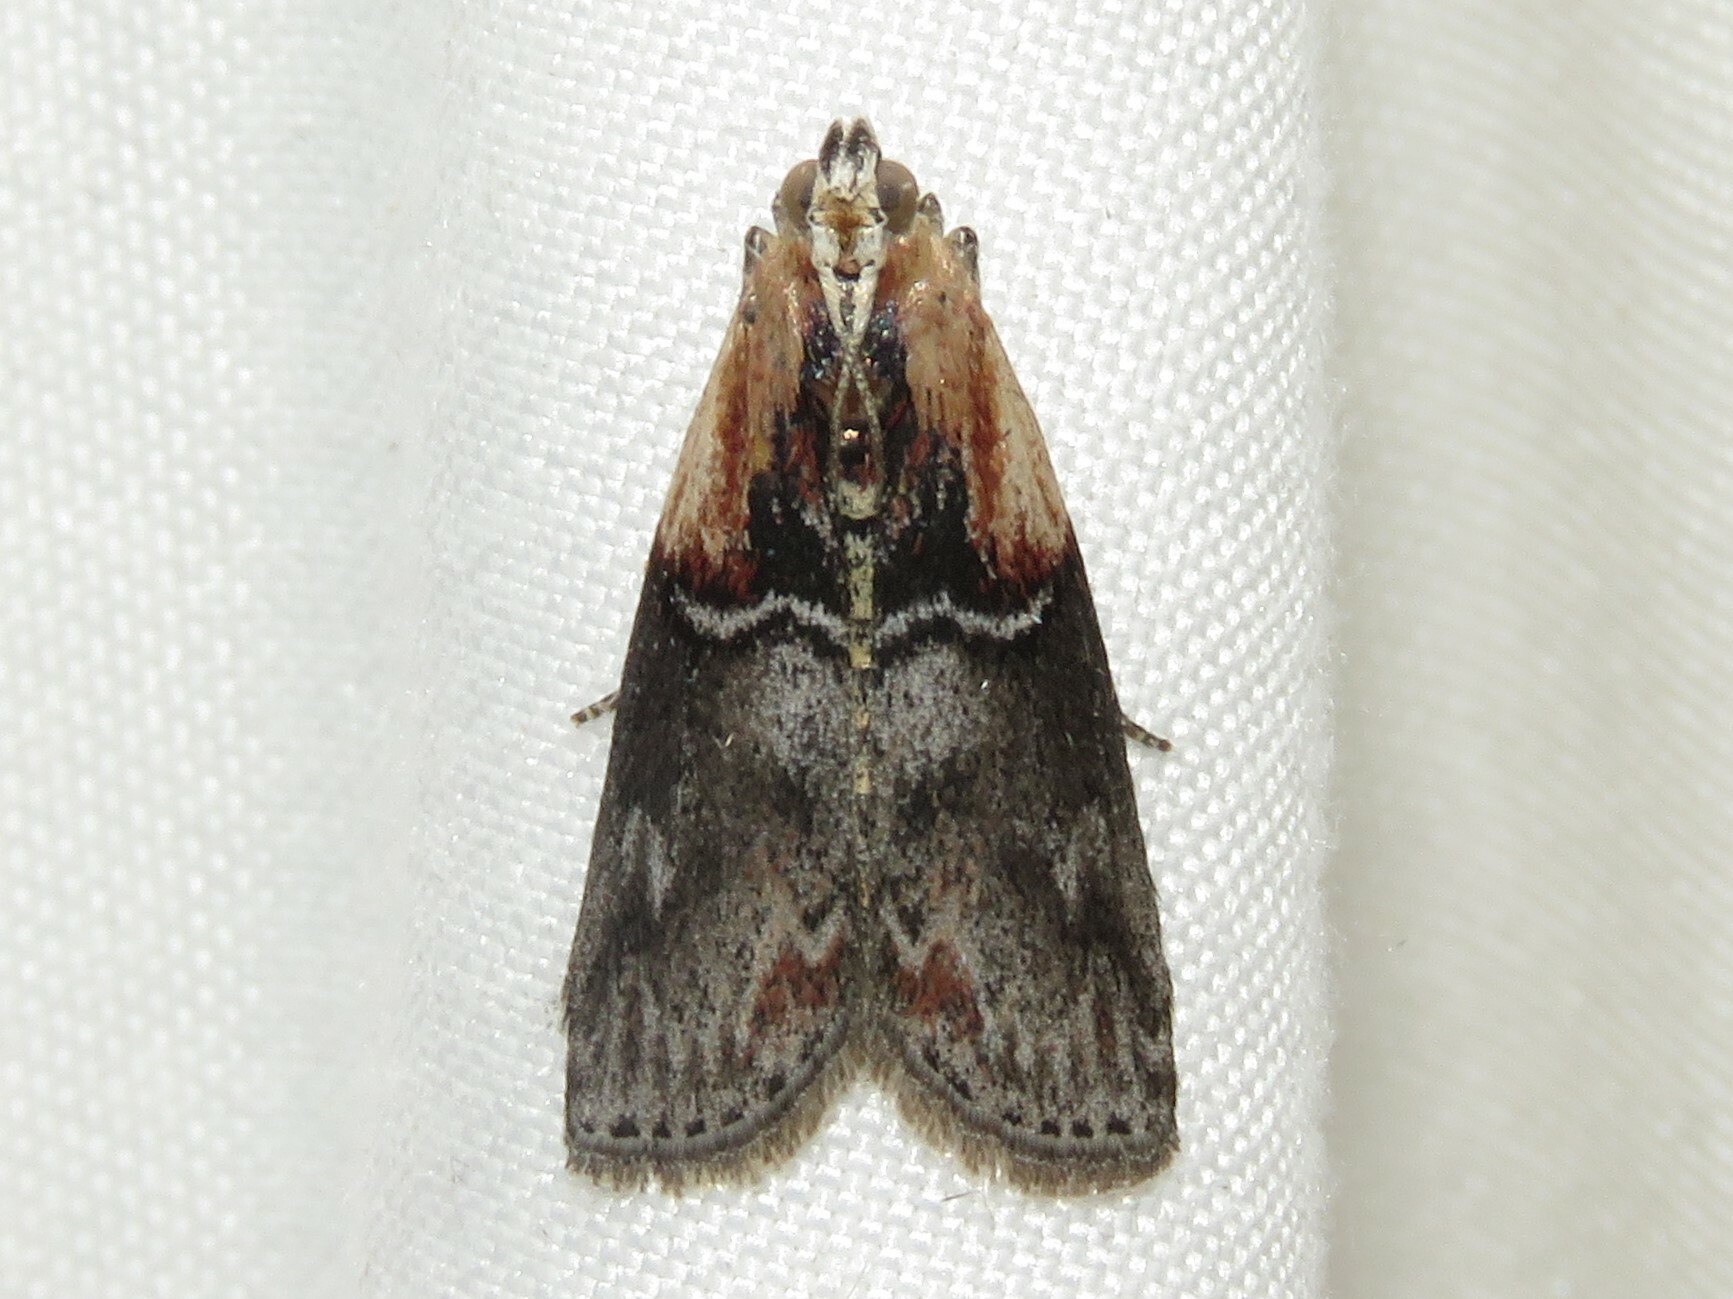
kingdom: Animalia
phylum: Arthropoda
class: Insecta
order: Lepidoptera
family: Pyralidae
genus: Sciota
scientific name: Sciota basilaris
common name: Yellow-shouldered leafroller
